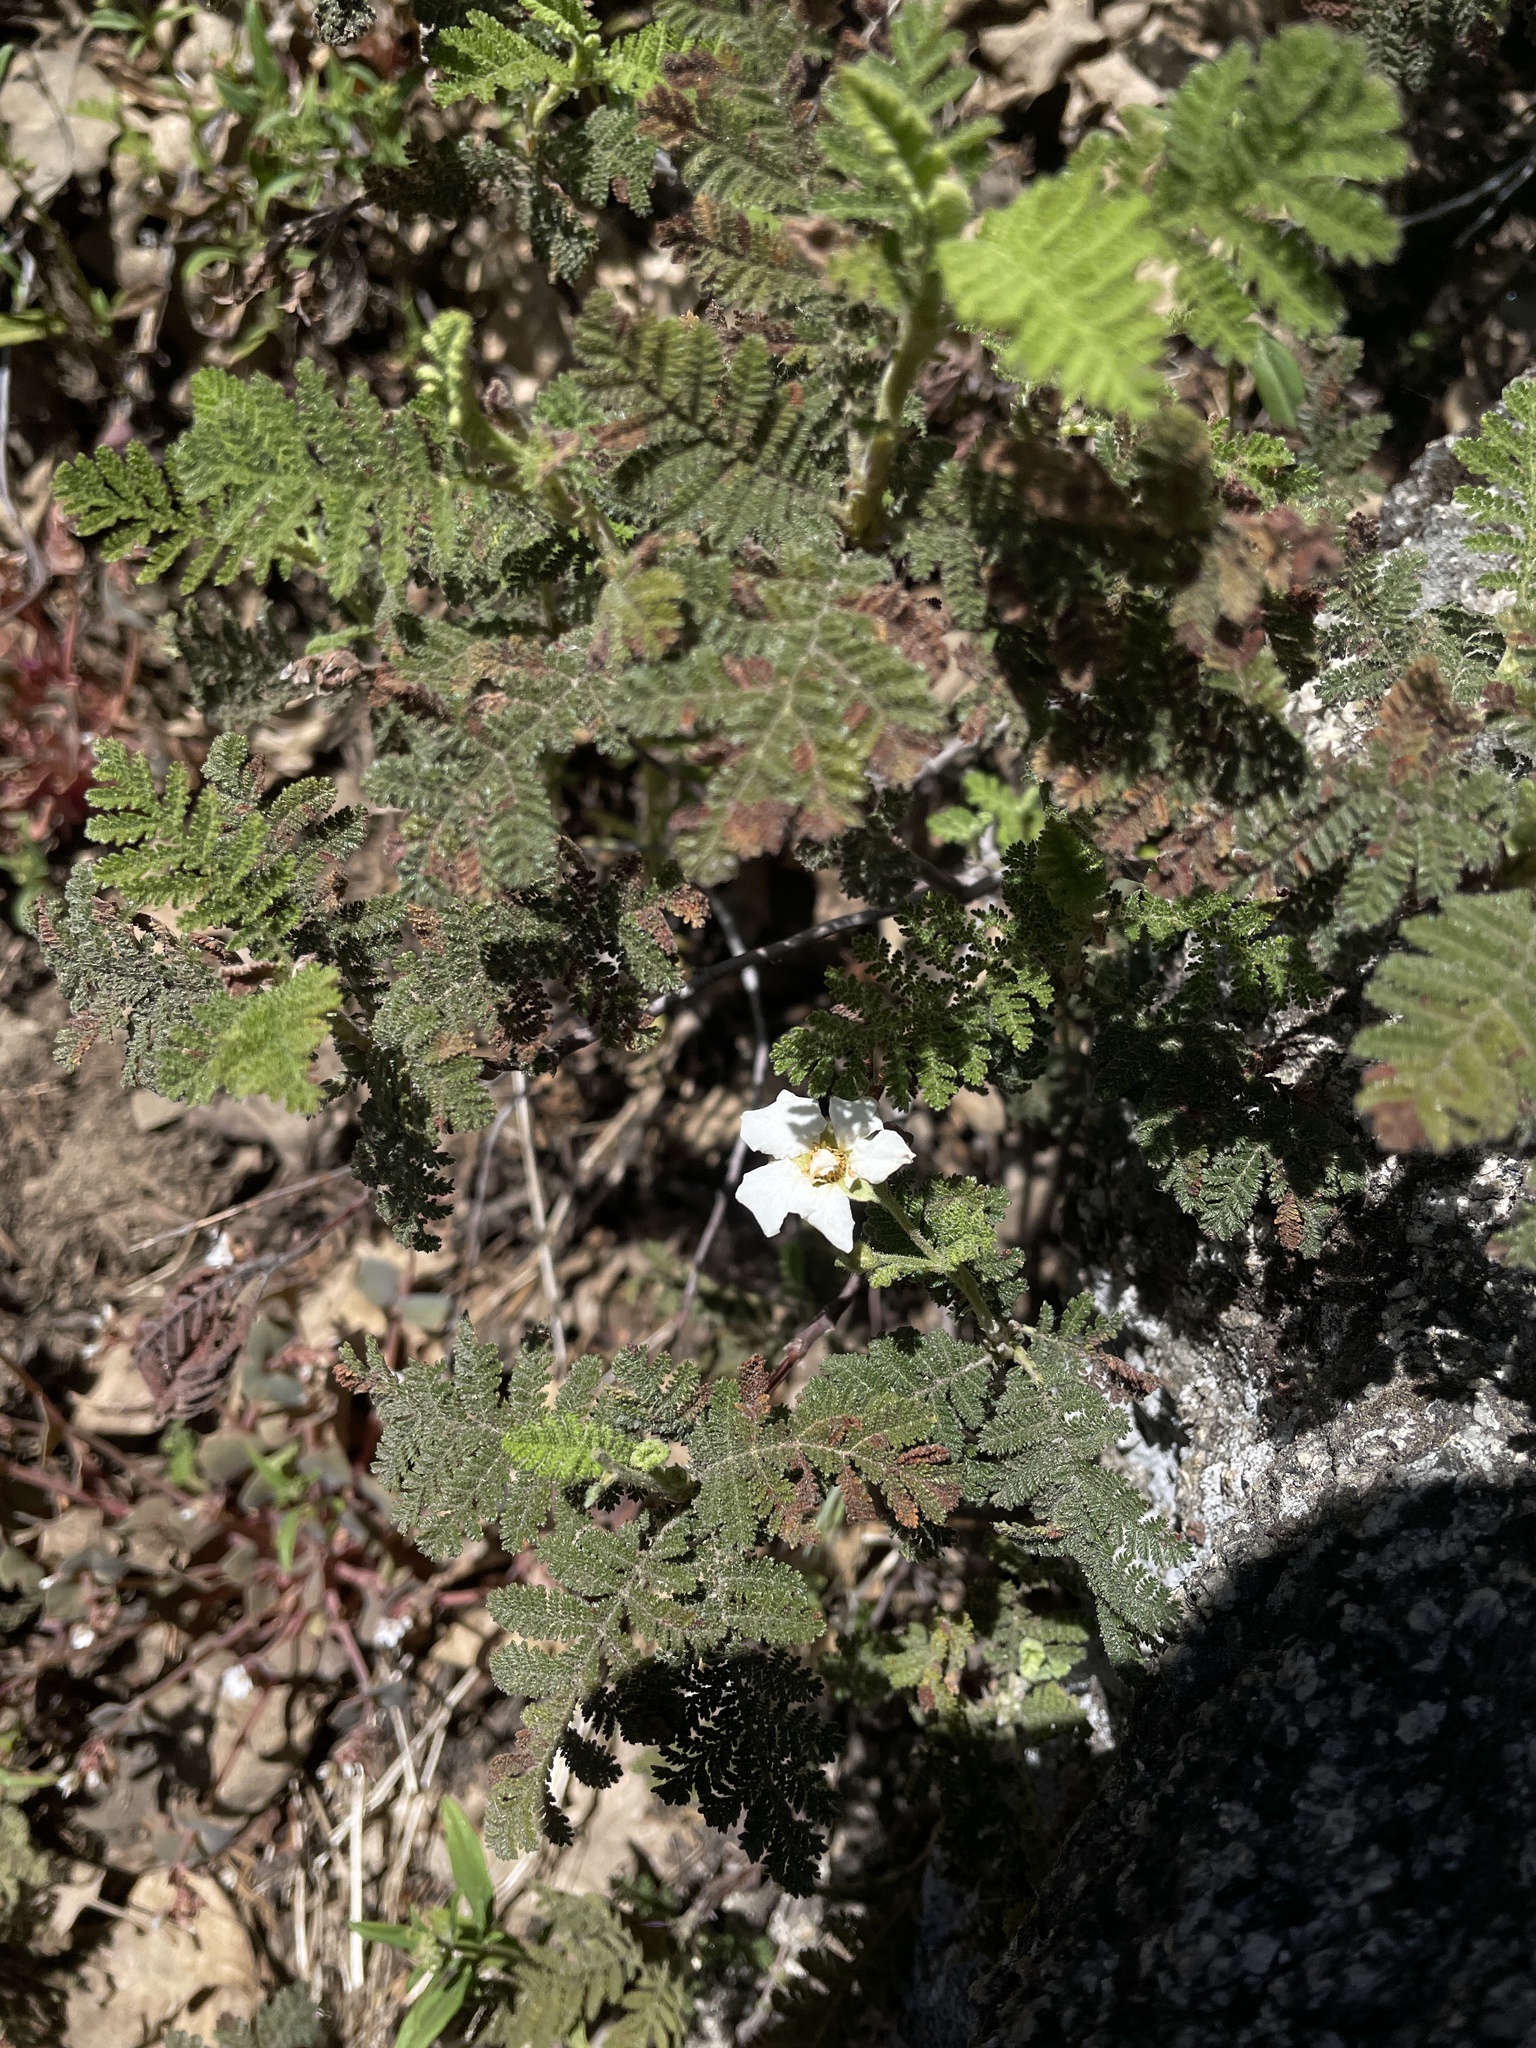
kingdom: Plantae
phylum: Tracheophyta
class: Magnoliopsida
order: Rosales
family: Rosaceae
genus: Chamaebatia
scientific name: Chamaebatia foliolosa
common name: Mountain misery
